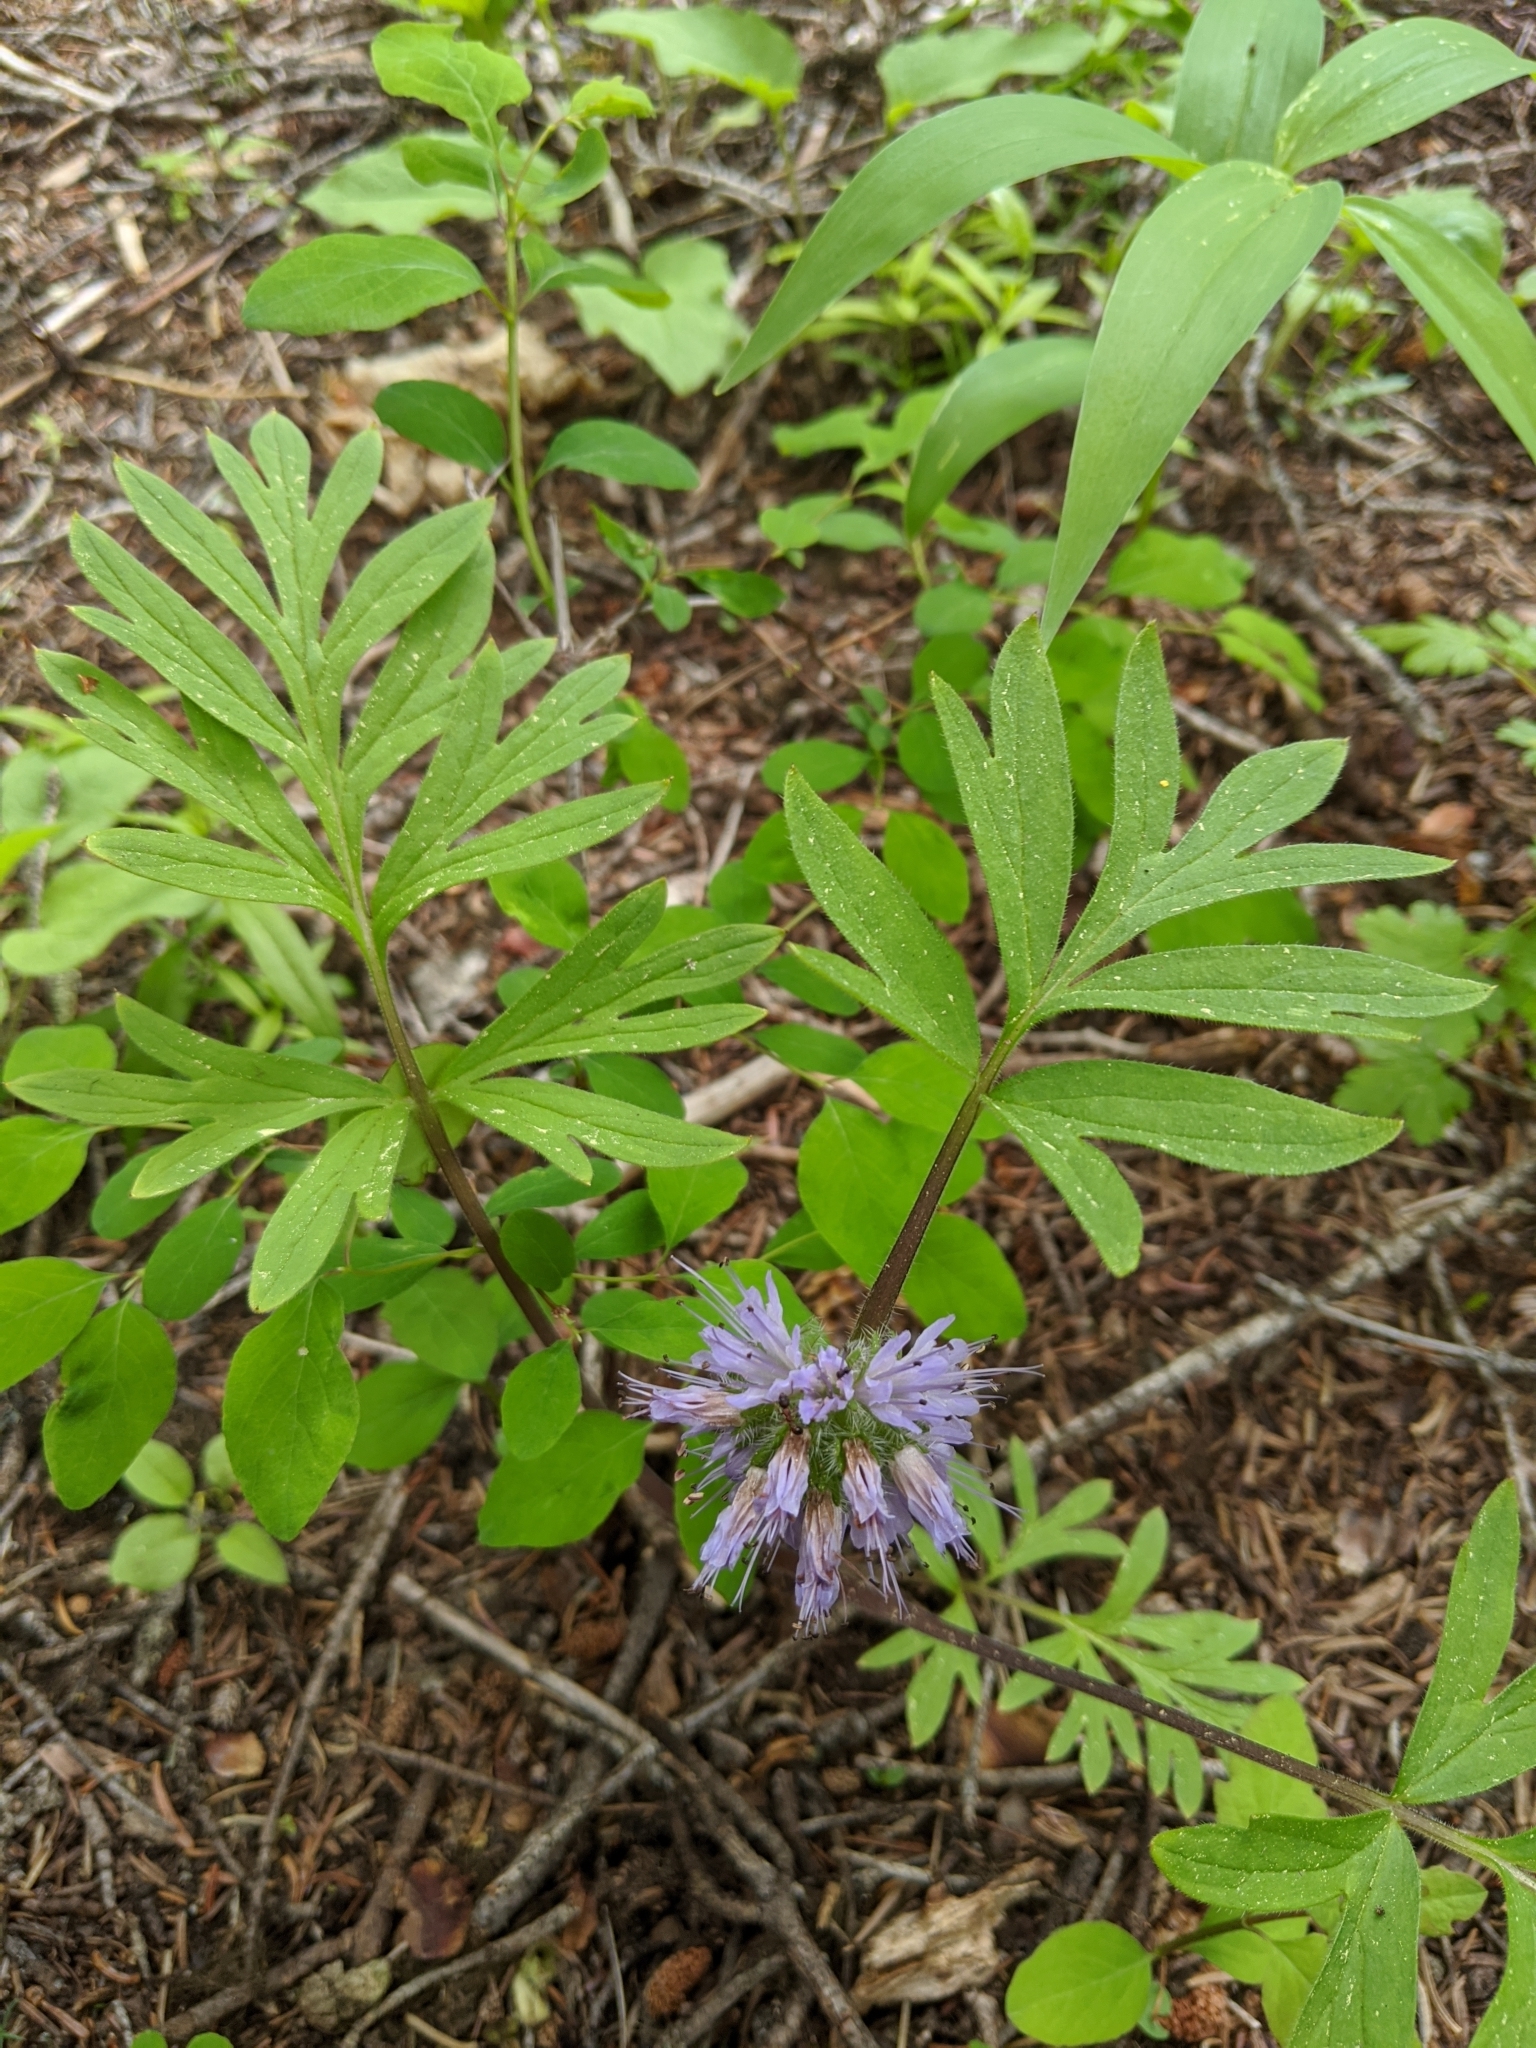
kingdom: Plantae
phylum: Tracheophyta
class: Magnoliopsida
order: Boraginales
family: Hydrophyllaceae
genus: Hydrophyllum
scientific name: Hydrophyllum capitatum
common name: Woollen-breeches
